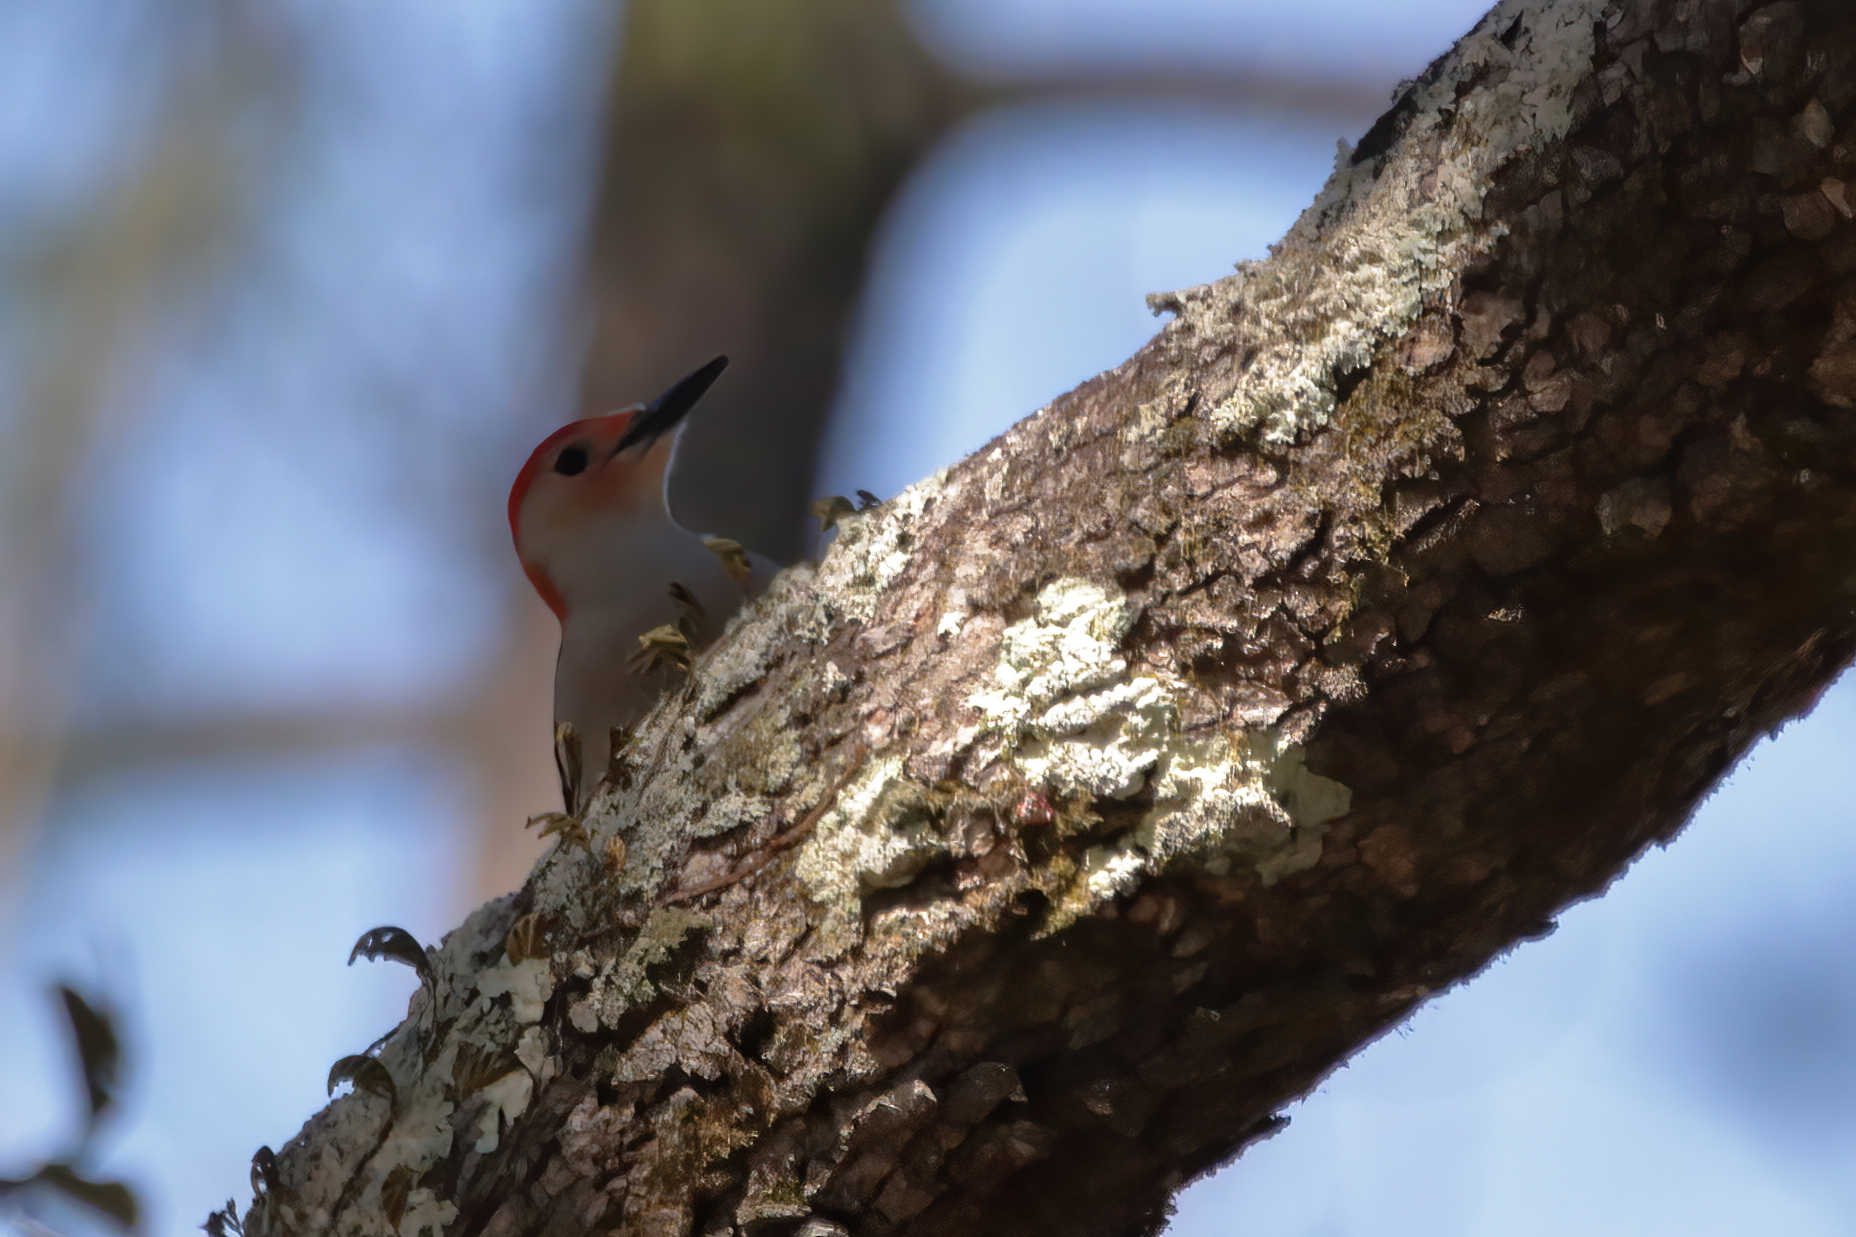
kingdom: Animalia
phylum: Chordata
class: Aves
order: Piciformes
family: Picidae
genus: Melanerpes
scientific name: Melanerpes carolinus
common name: Red-bellied woodpecker
